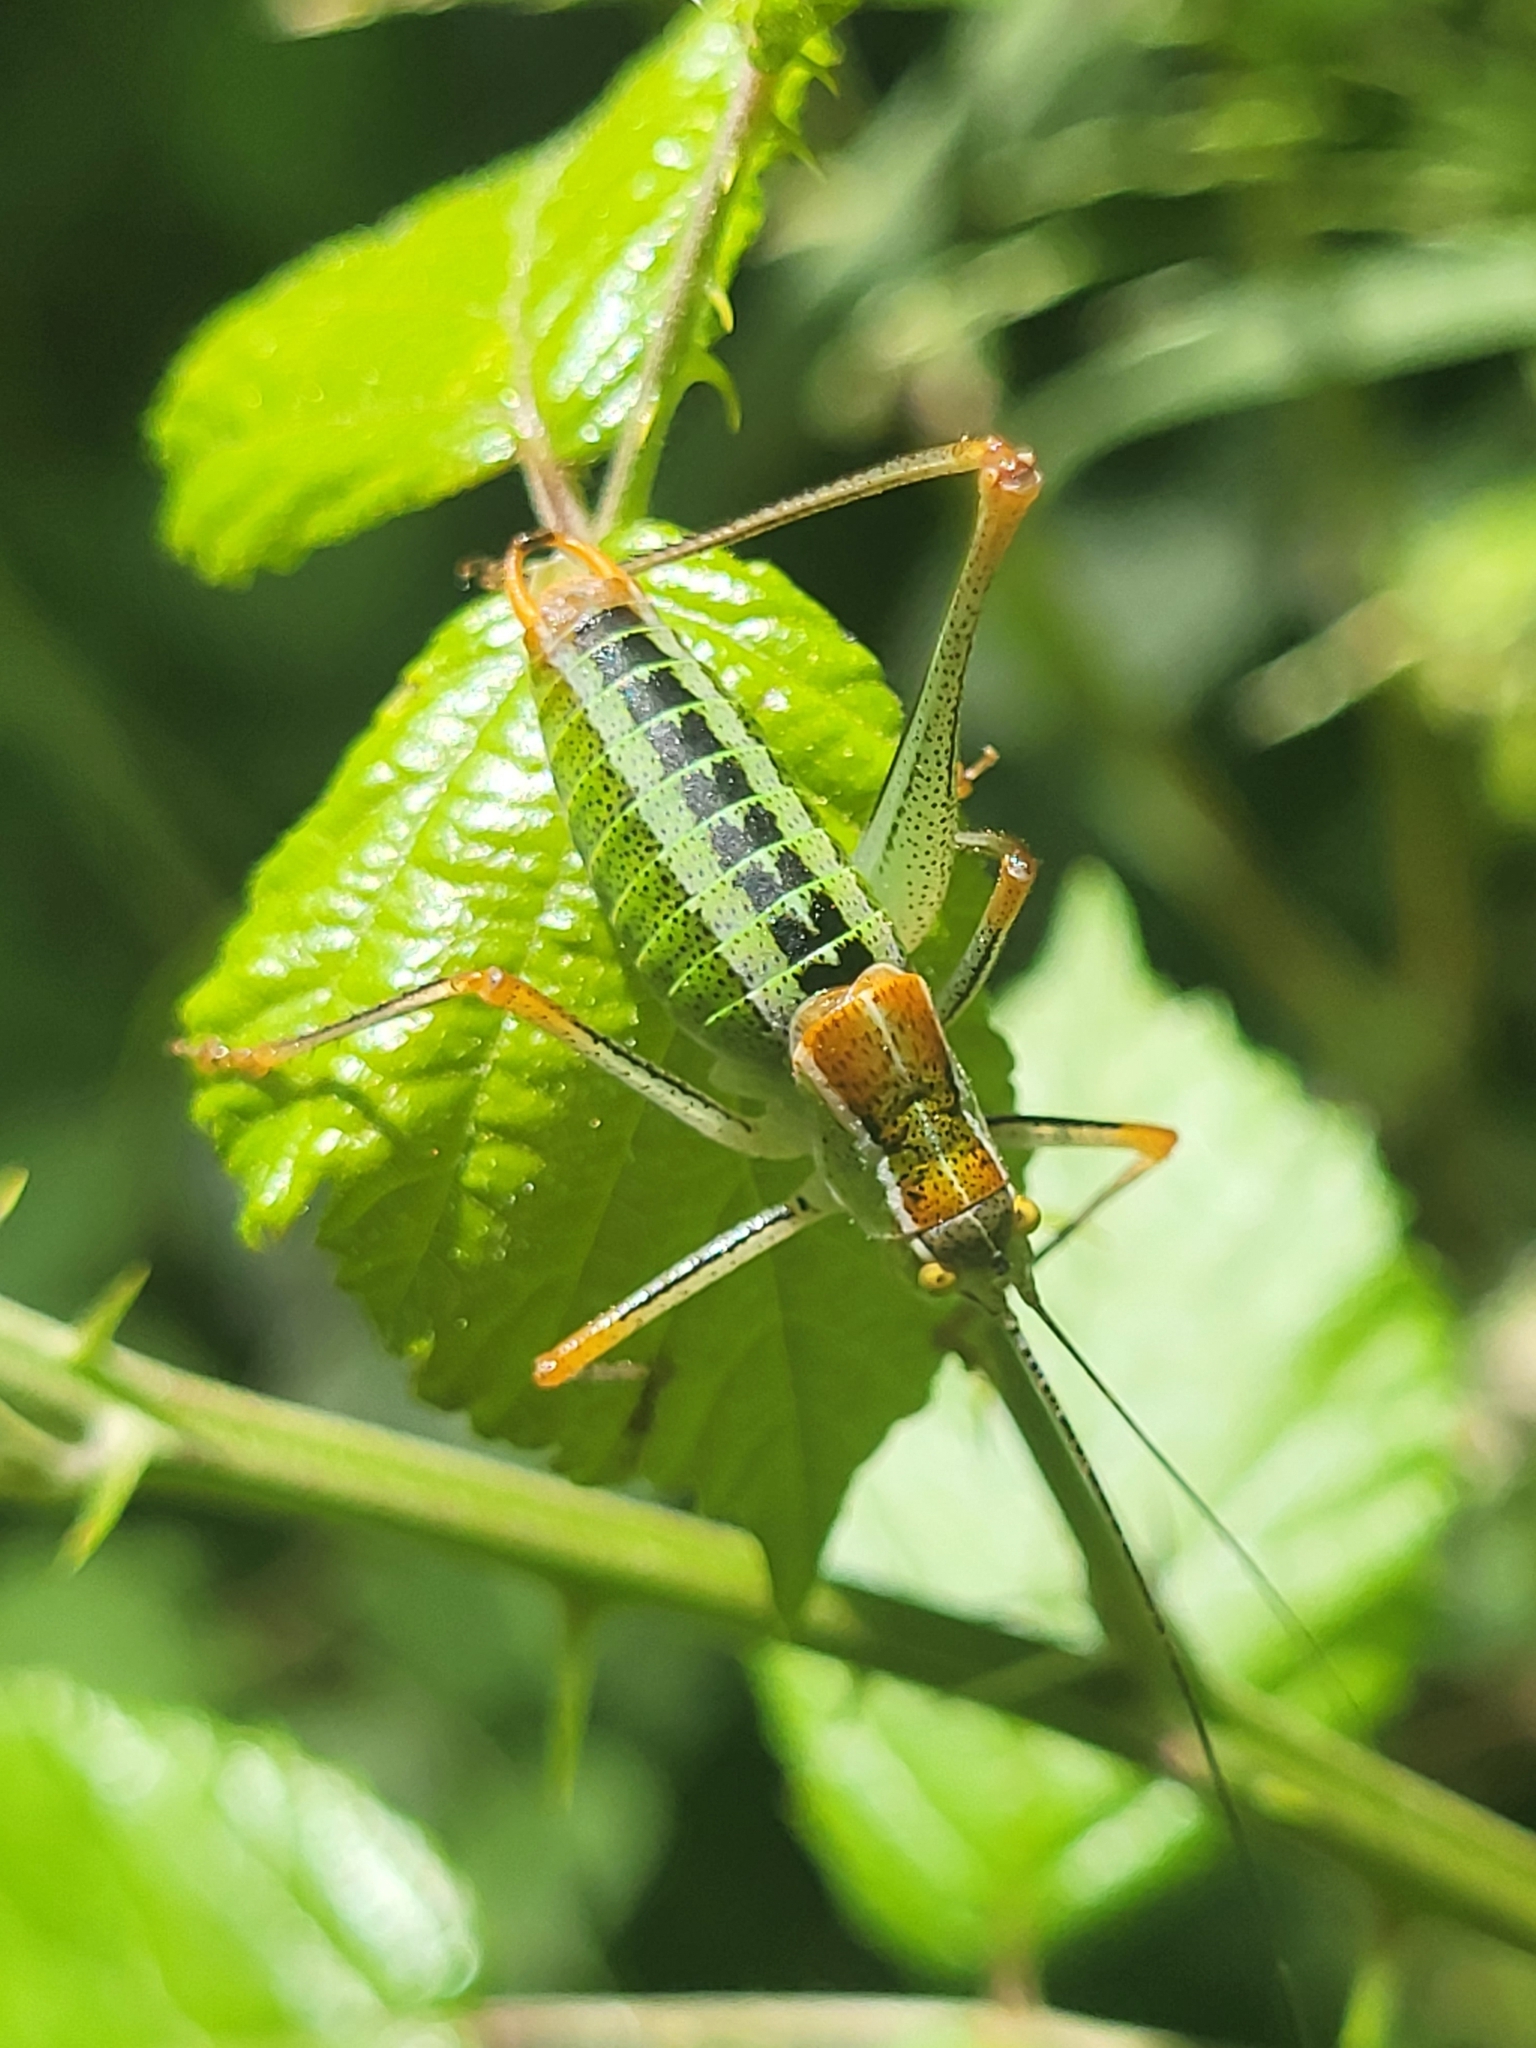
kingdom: Animalia
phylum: Arthropoda
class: Insecta
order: Orthoptera
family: Tettigoniidae
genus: Poecilimon
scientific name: Poecilimon jonicus
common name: Ionian bright bush-cricket
